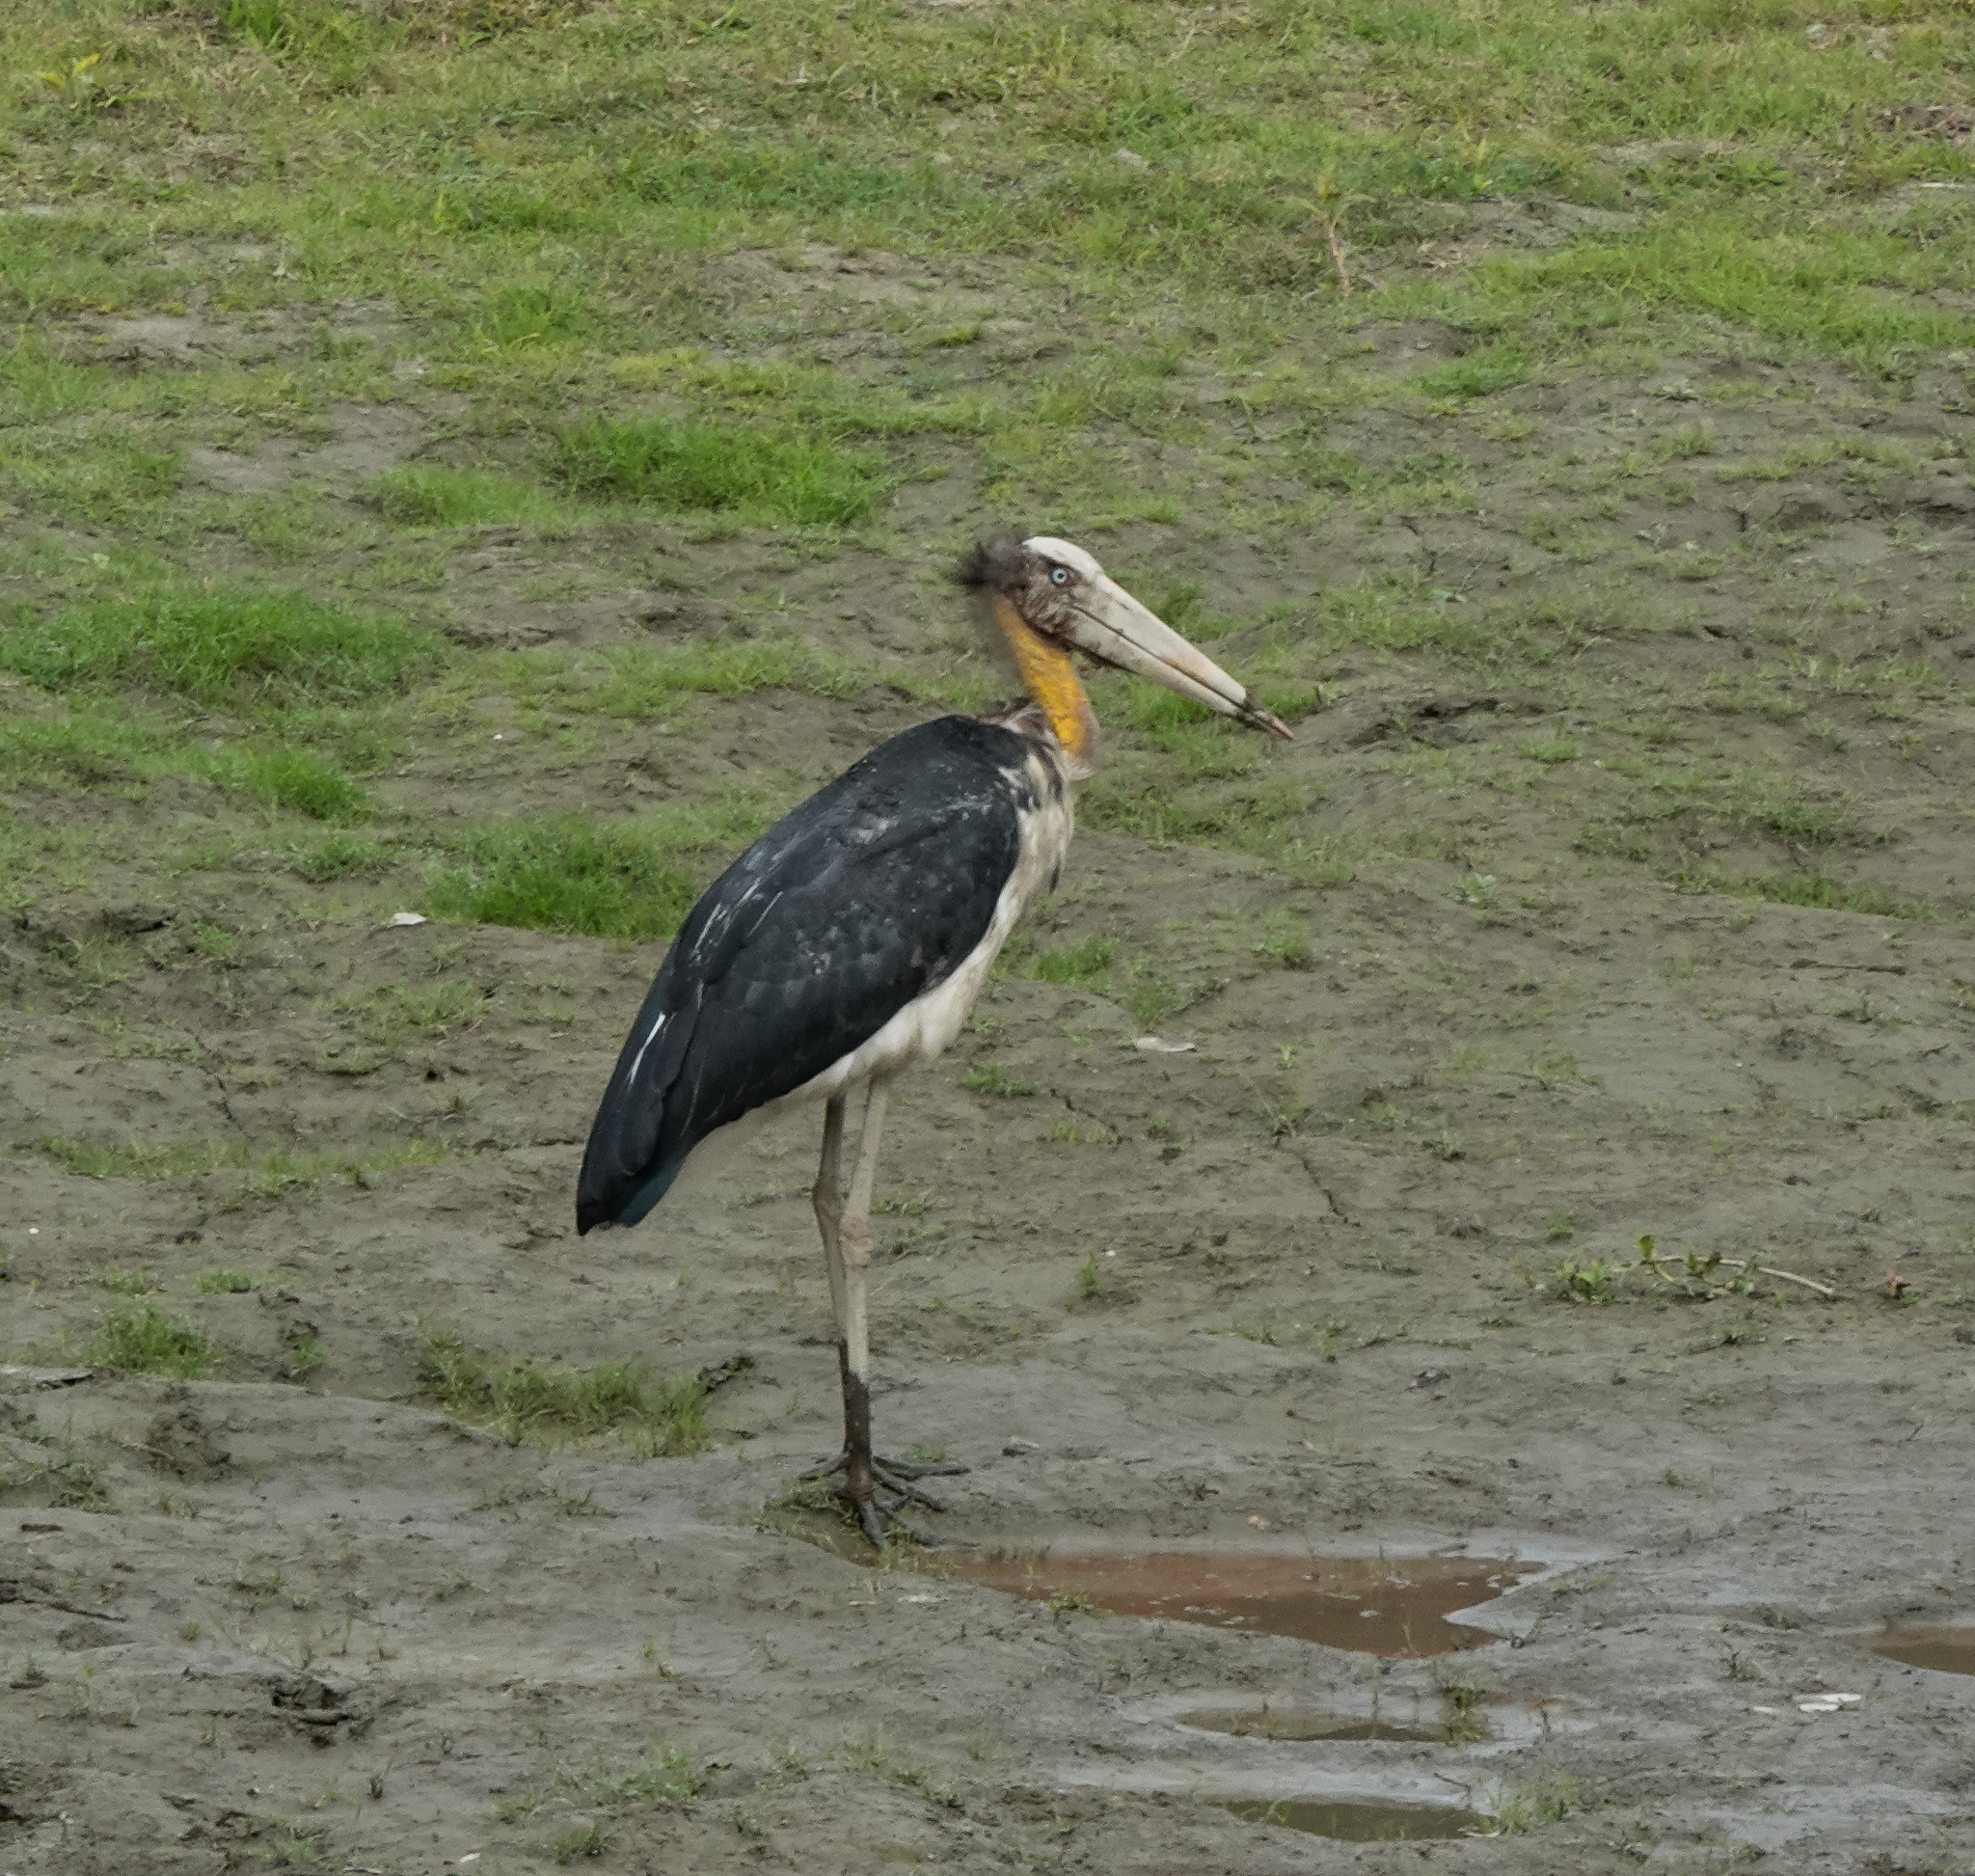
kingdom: Animalia
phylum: Chordata
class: Aves
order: Ciconiiformes
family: Ciconiidae
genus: Leptoptilos
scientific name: Leptoptilos javanicus
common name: Lesser adjutant
